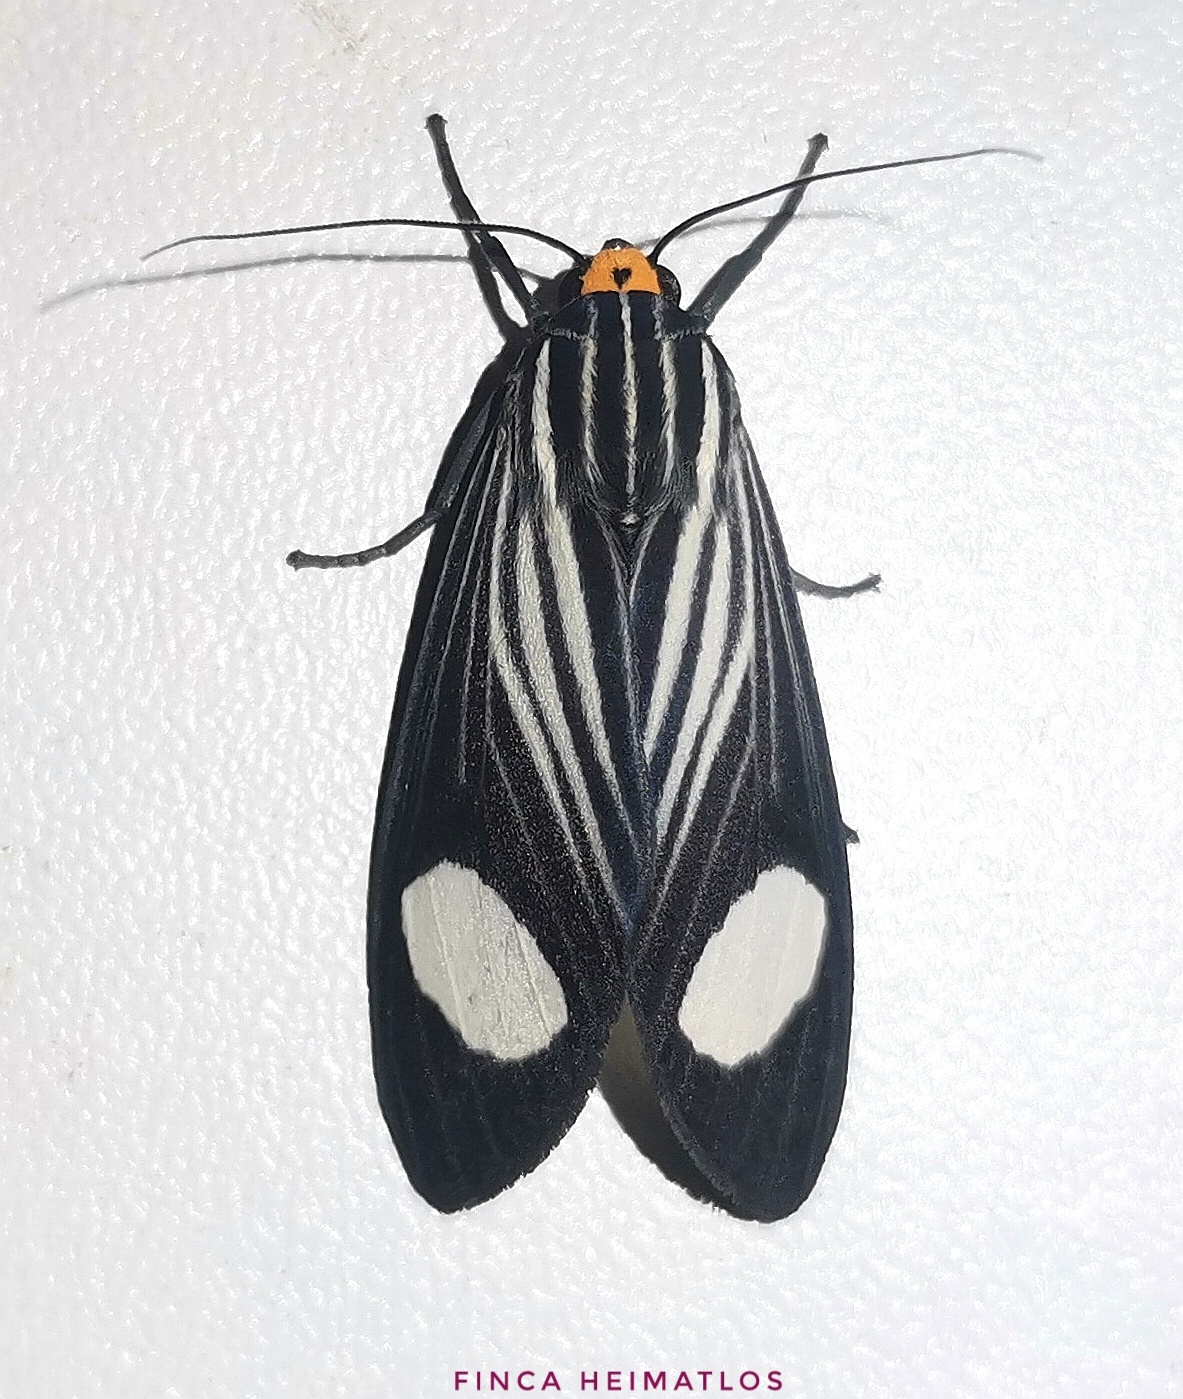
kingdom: Animalia
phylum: Arthropoda
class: Insecta
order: Lepidoptera
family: Erebidae
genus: Rhipha
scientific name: Rhipha niveomaculata
